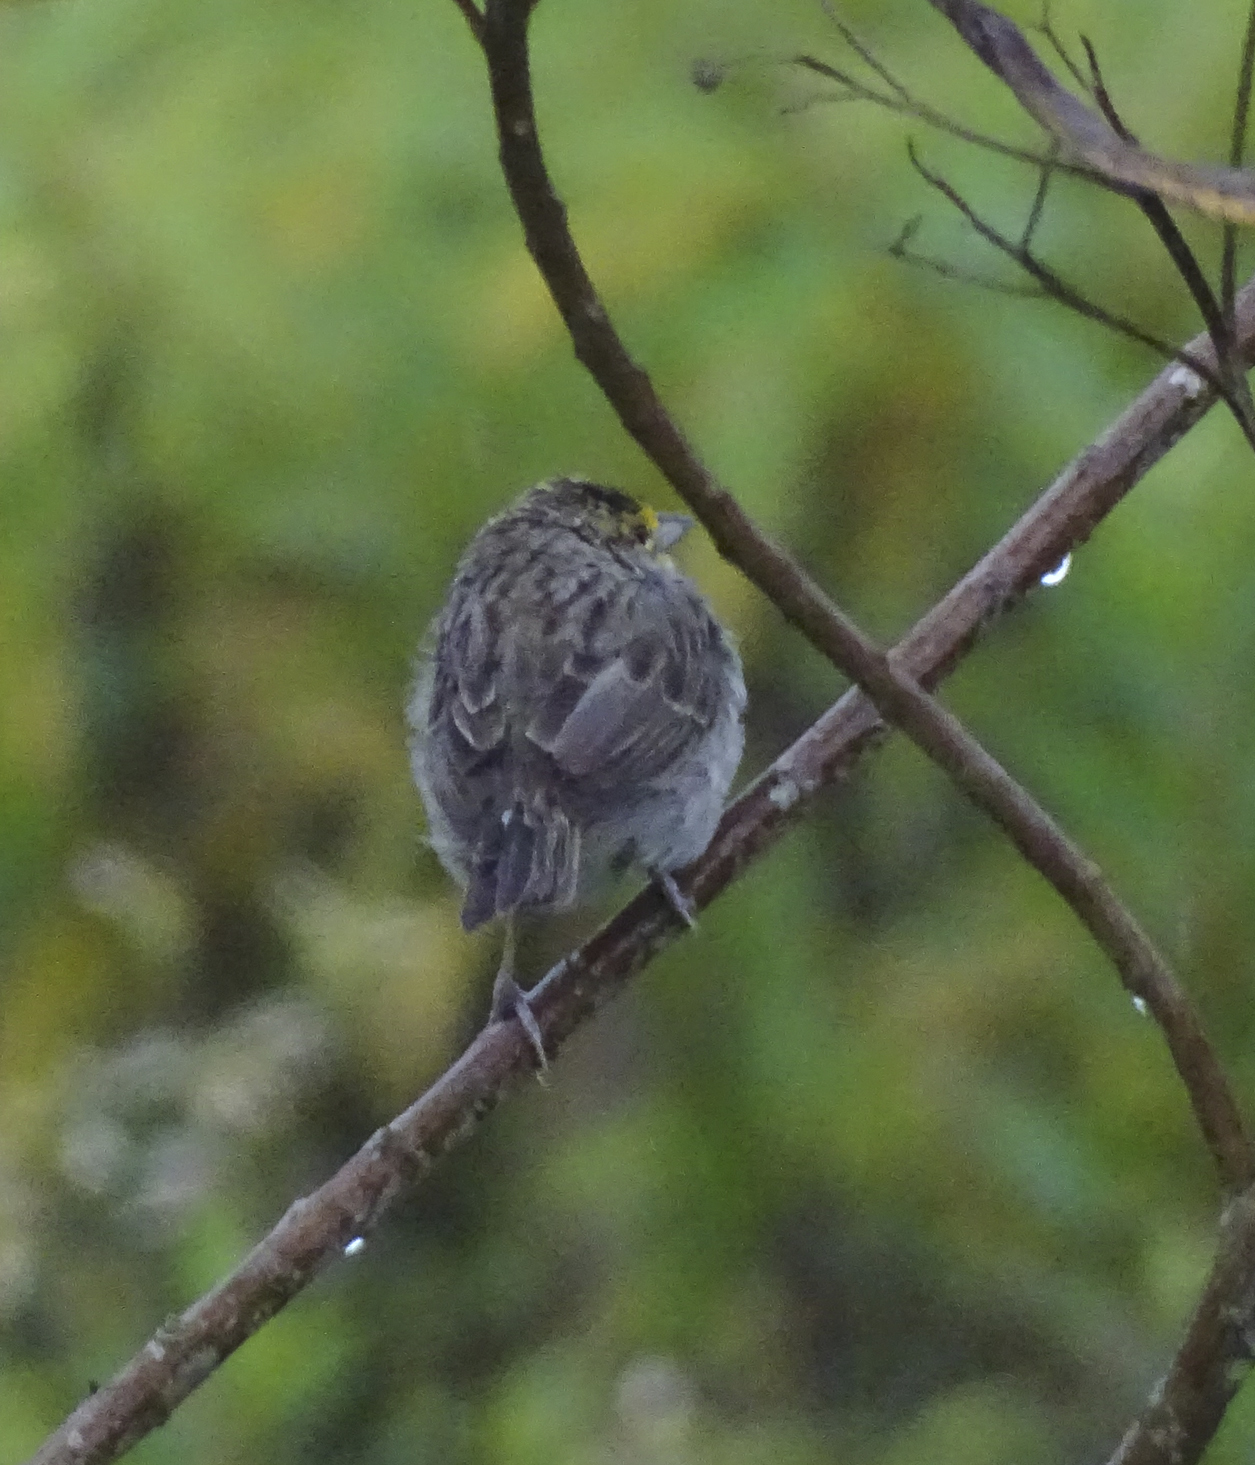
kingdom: Animalia
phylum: Chordata
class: Aves
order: Passeriformes
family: Passerellidae
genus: Ammodramus
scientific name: Ammodramus aurifrons
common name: Yellow-browed sparrow
